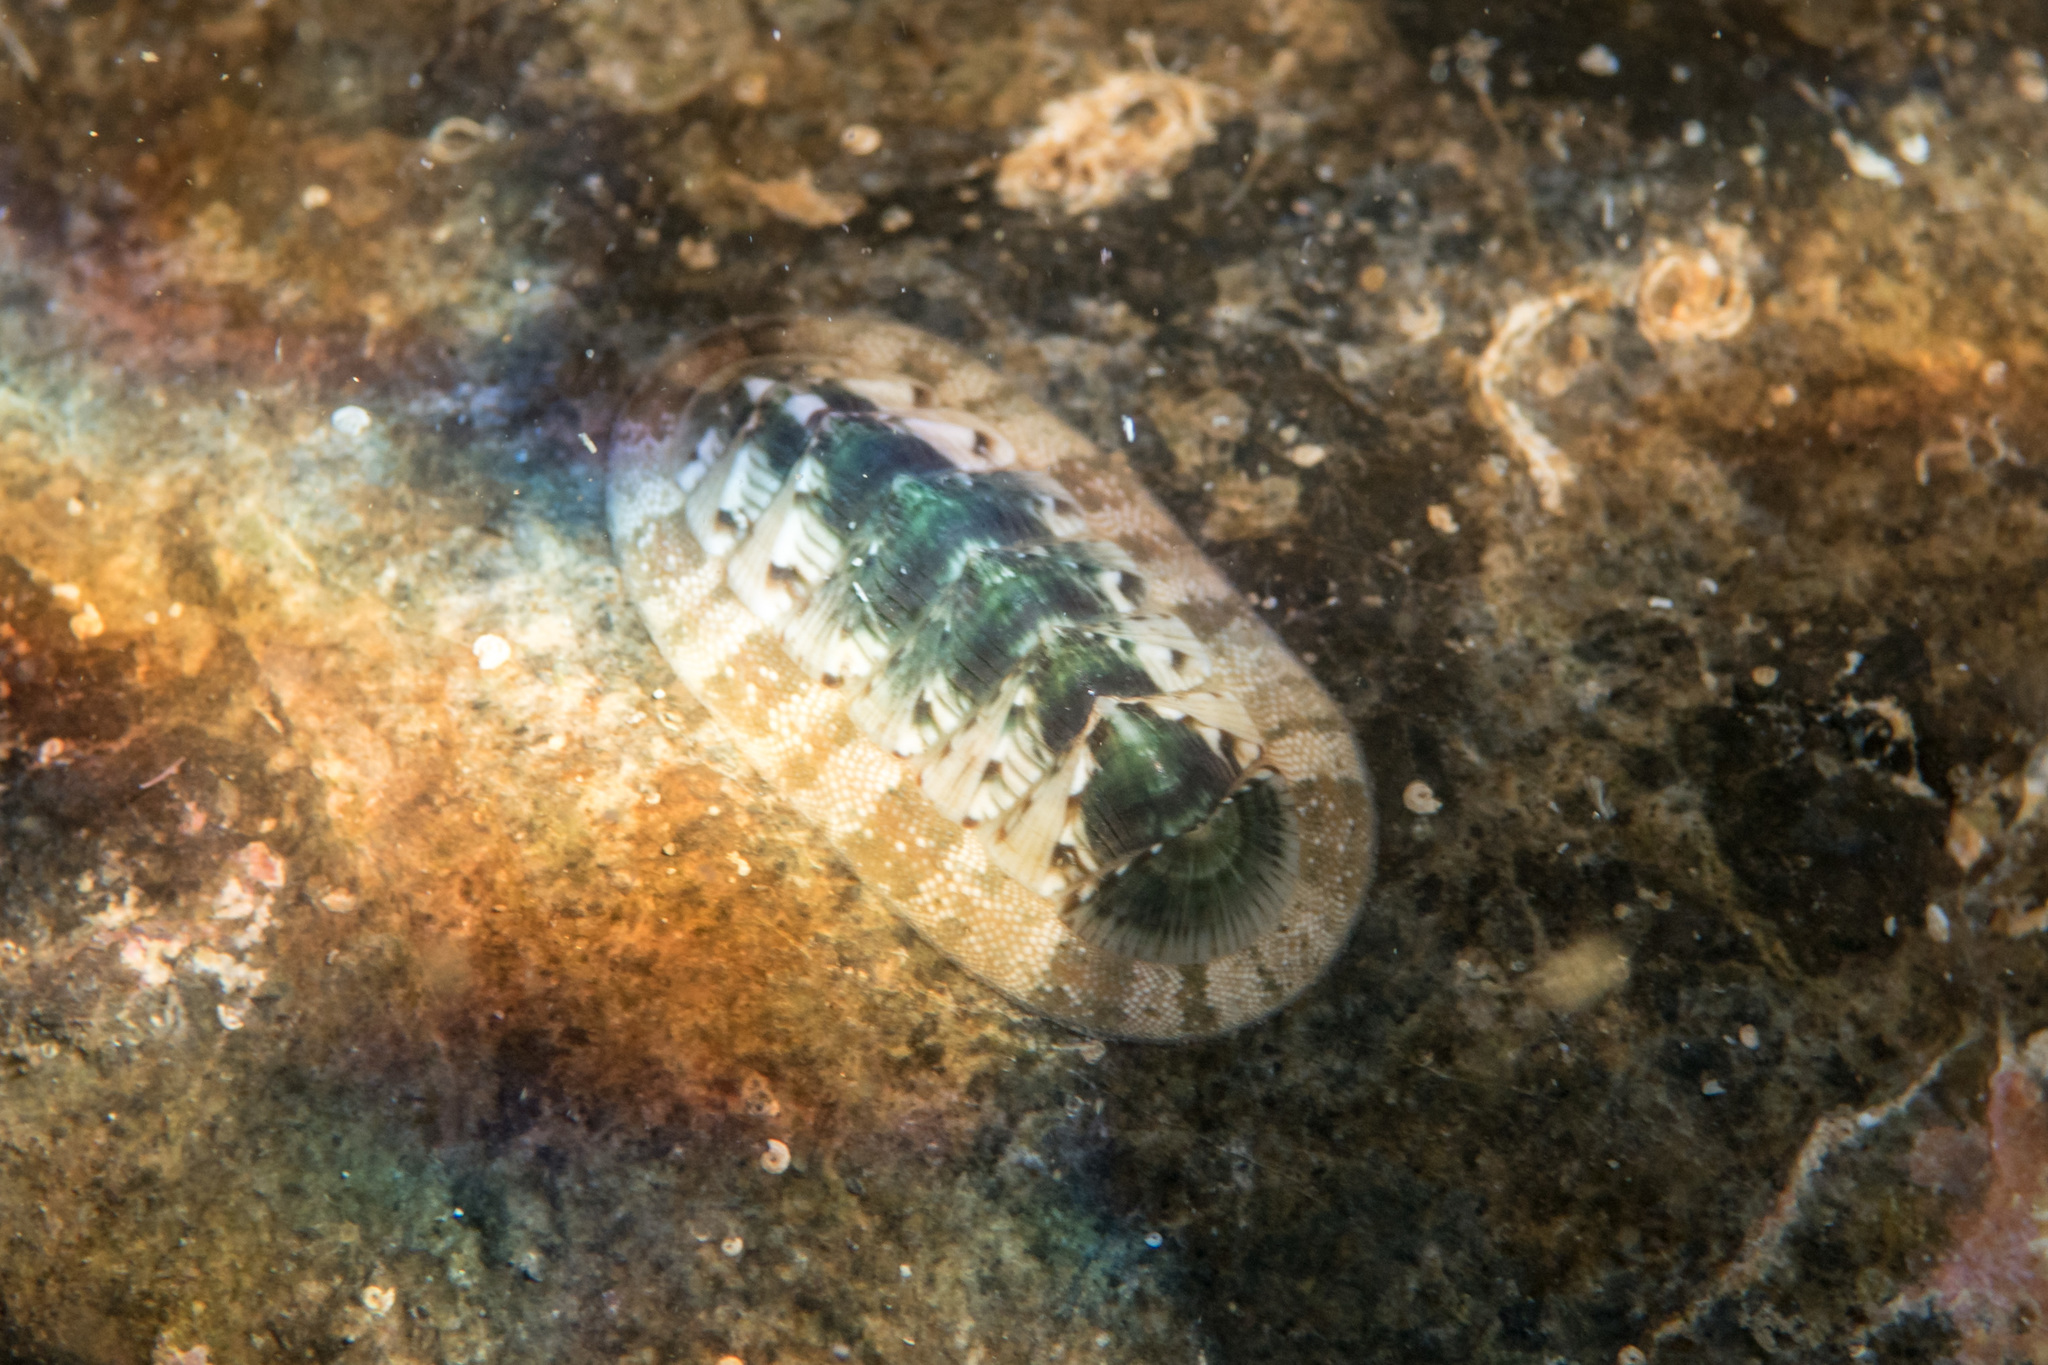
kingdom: Animalia
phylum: Mollusca
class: Polyplacophora
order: Chitonida
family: Chitonidae
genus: Rhyssoplax
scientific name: Rhyssoplax olivacea
